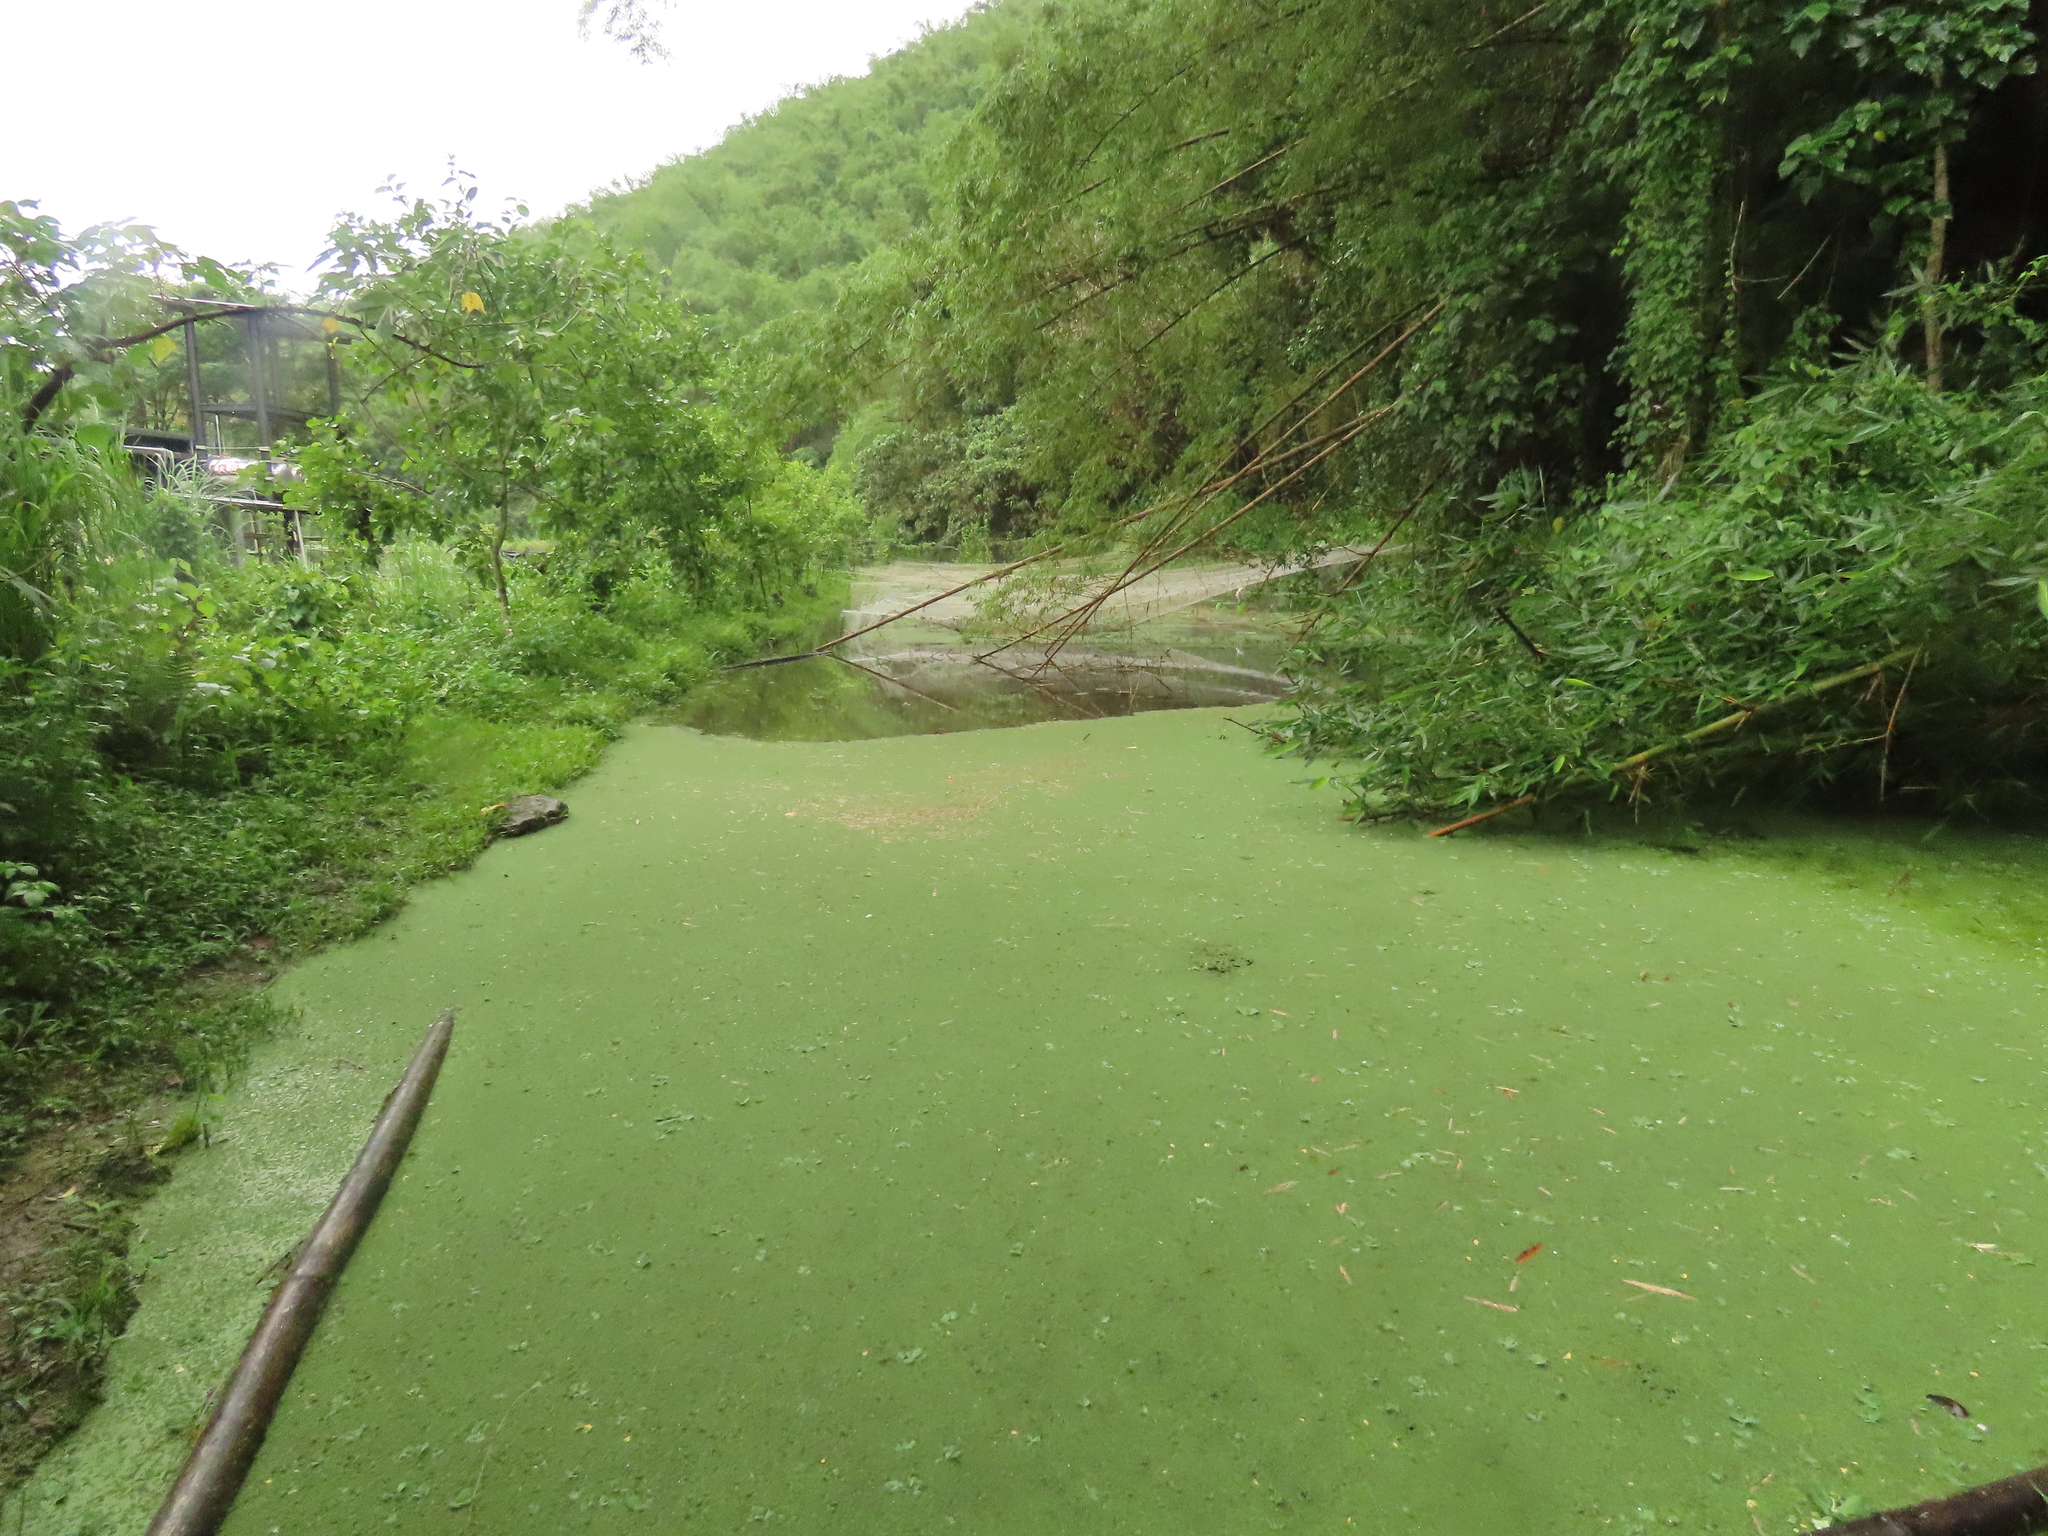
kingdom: Plantae
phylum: Tracheophyta
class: Polypodiopsida
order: Salviniales
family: Salviniaceae
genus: Azolla
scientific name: Azolla pinnata
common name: Ferny azolla
